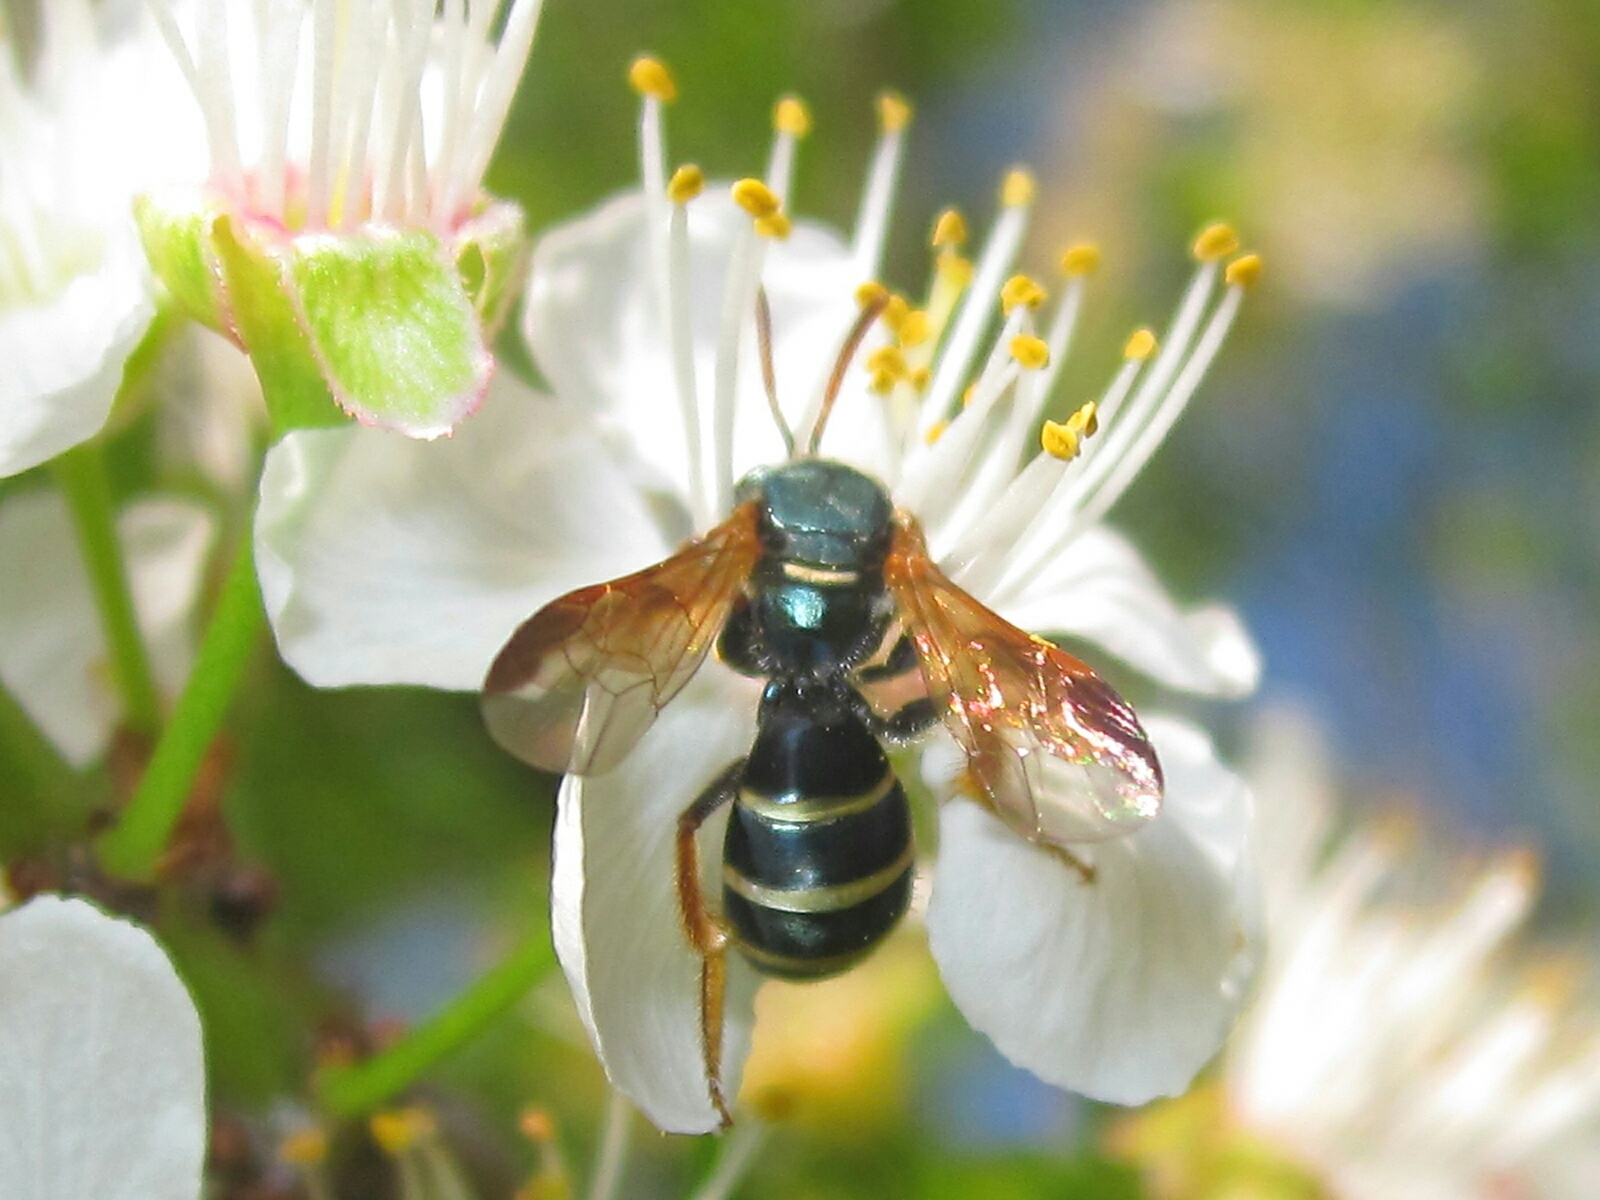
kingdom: Animalia
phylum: Arthropoda
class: Insecta
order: Hymenoptera
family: Halictidae
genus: Corynura
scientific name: Corynura chilensis
